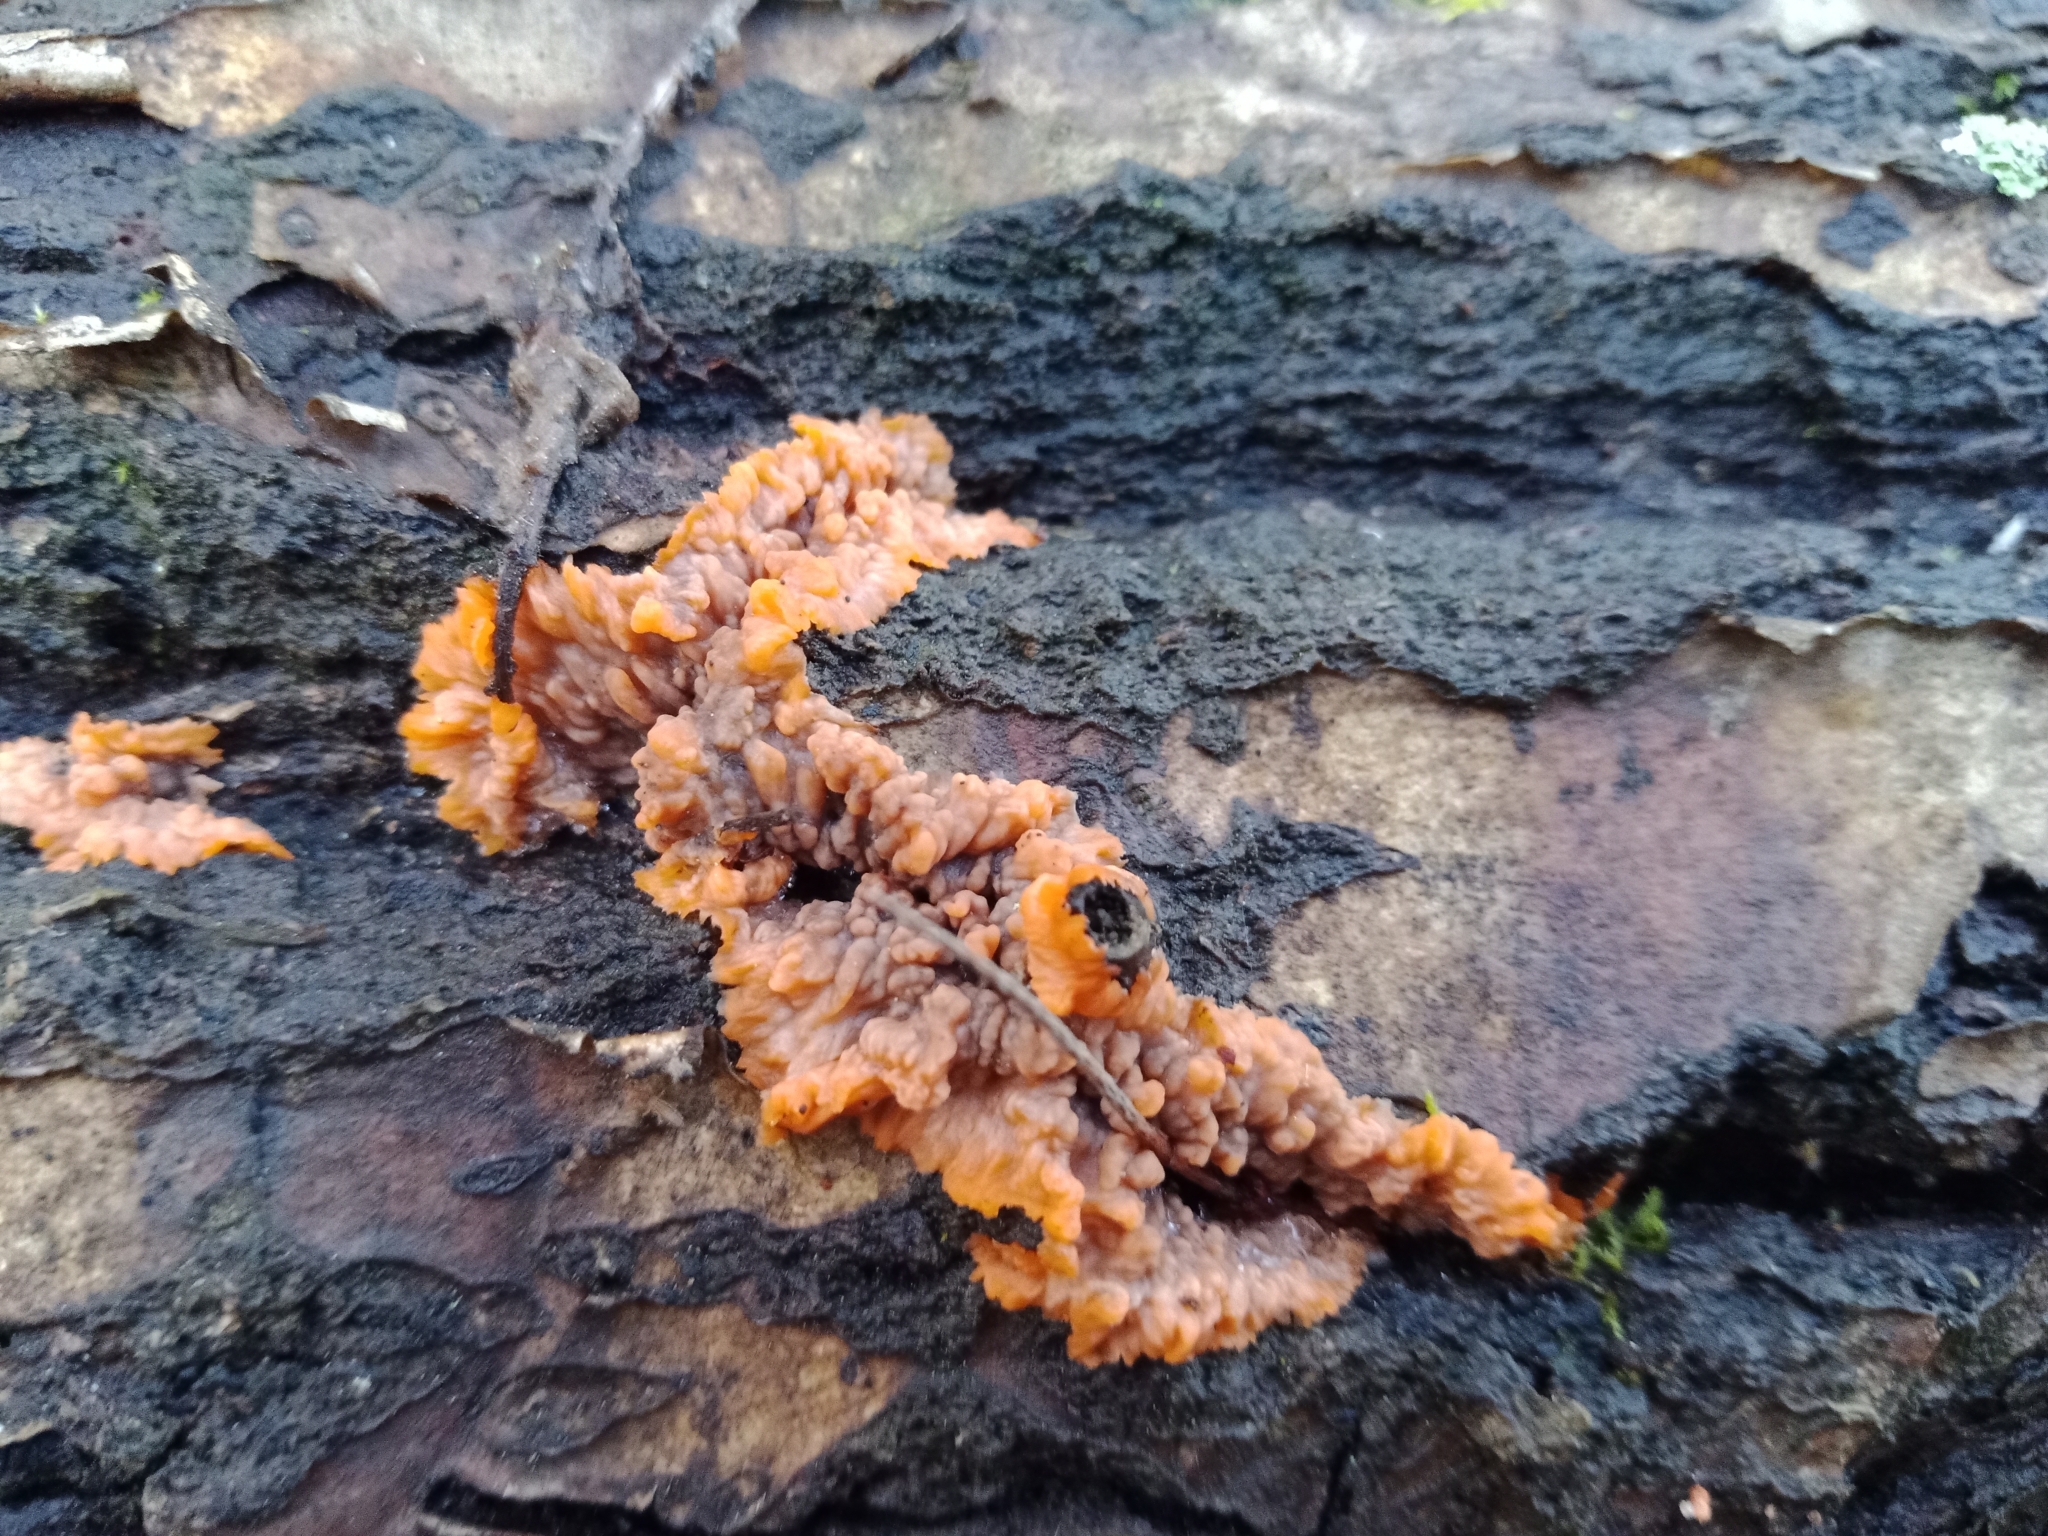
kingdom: Fungi
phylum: Basidiomycota
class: Agaricomycetes
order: Polyporales
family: Meruliaceae
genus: Phlebia
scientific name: Phlebia radiata
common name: Wrinkled crust
